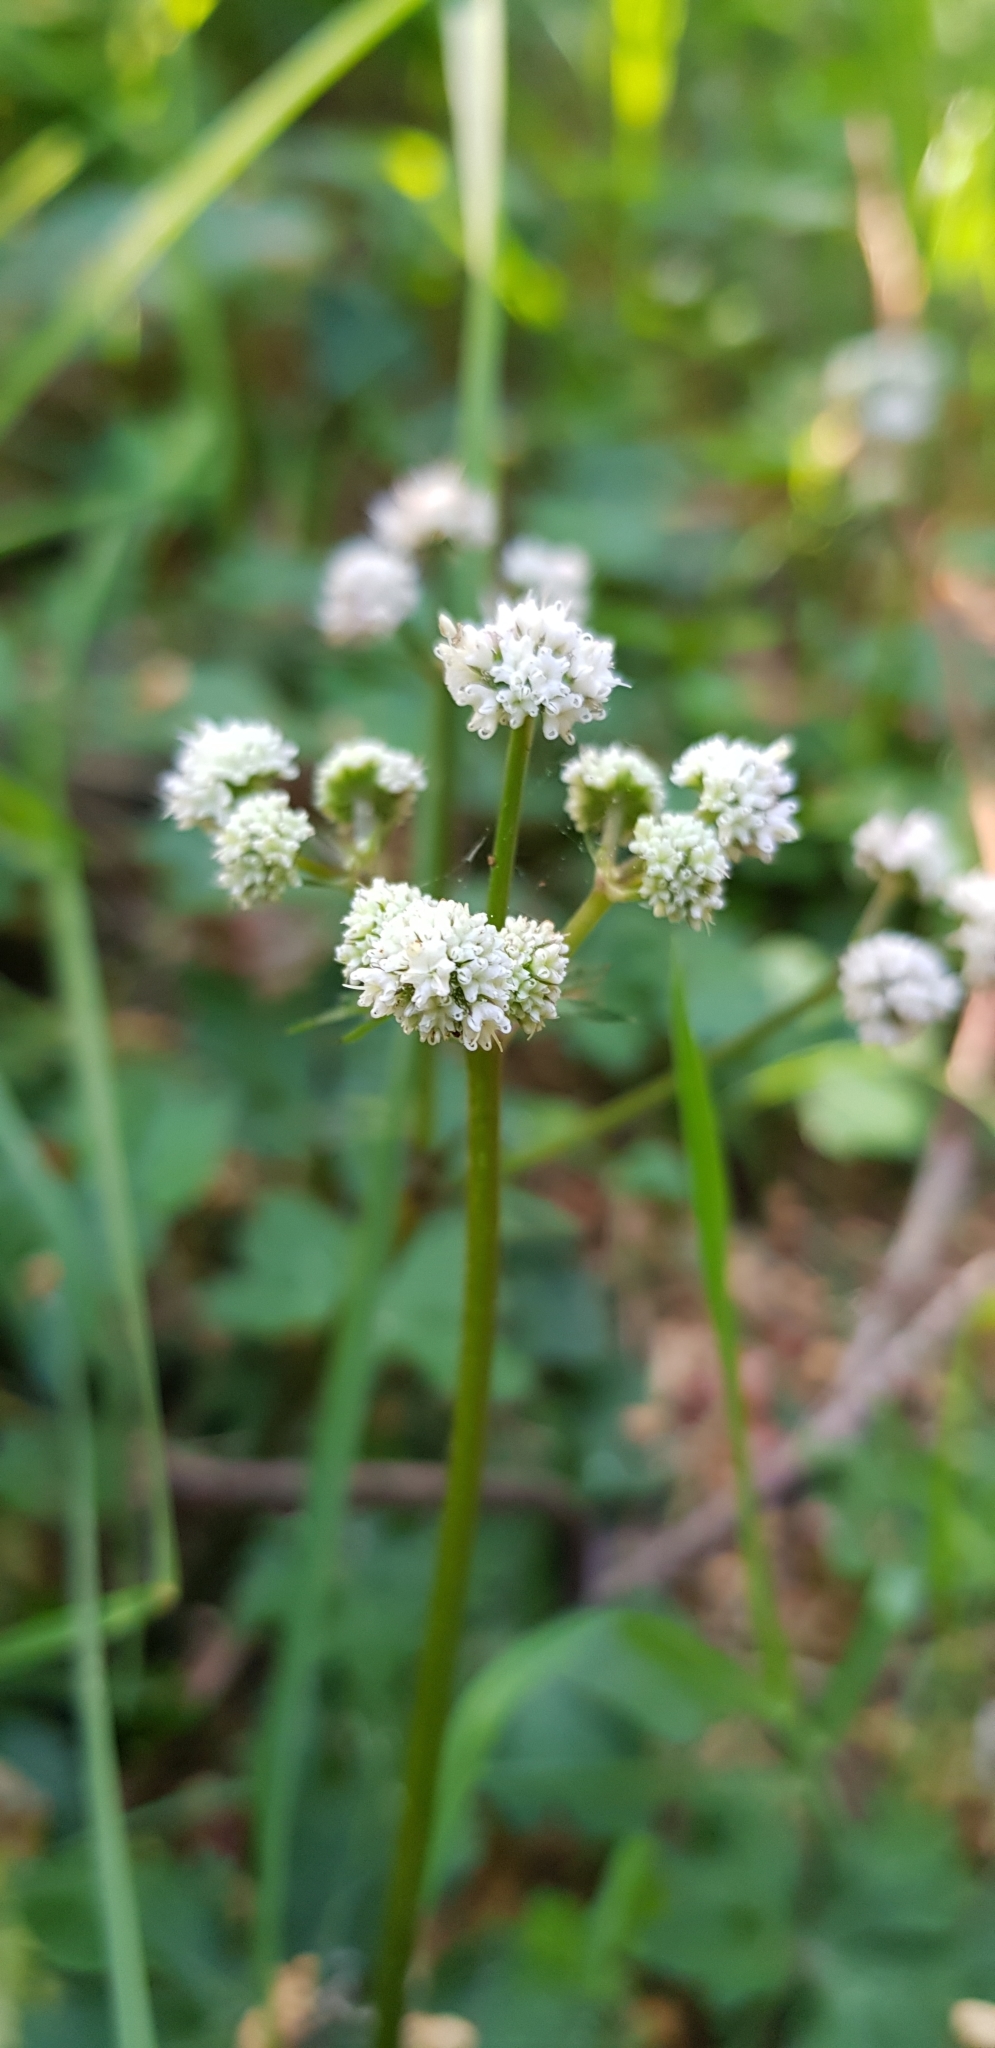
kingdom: Plantae
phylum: Tracheophyta
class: Magnoliopsida
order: Apiales
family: Apiaceae
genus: Sanicula
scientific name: Sanicula europaea
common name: Sanicle
